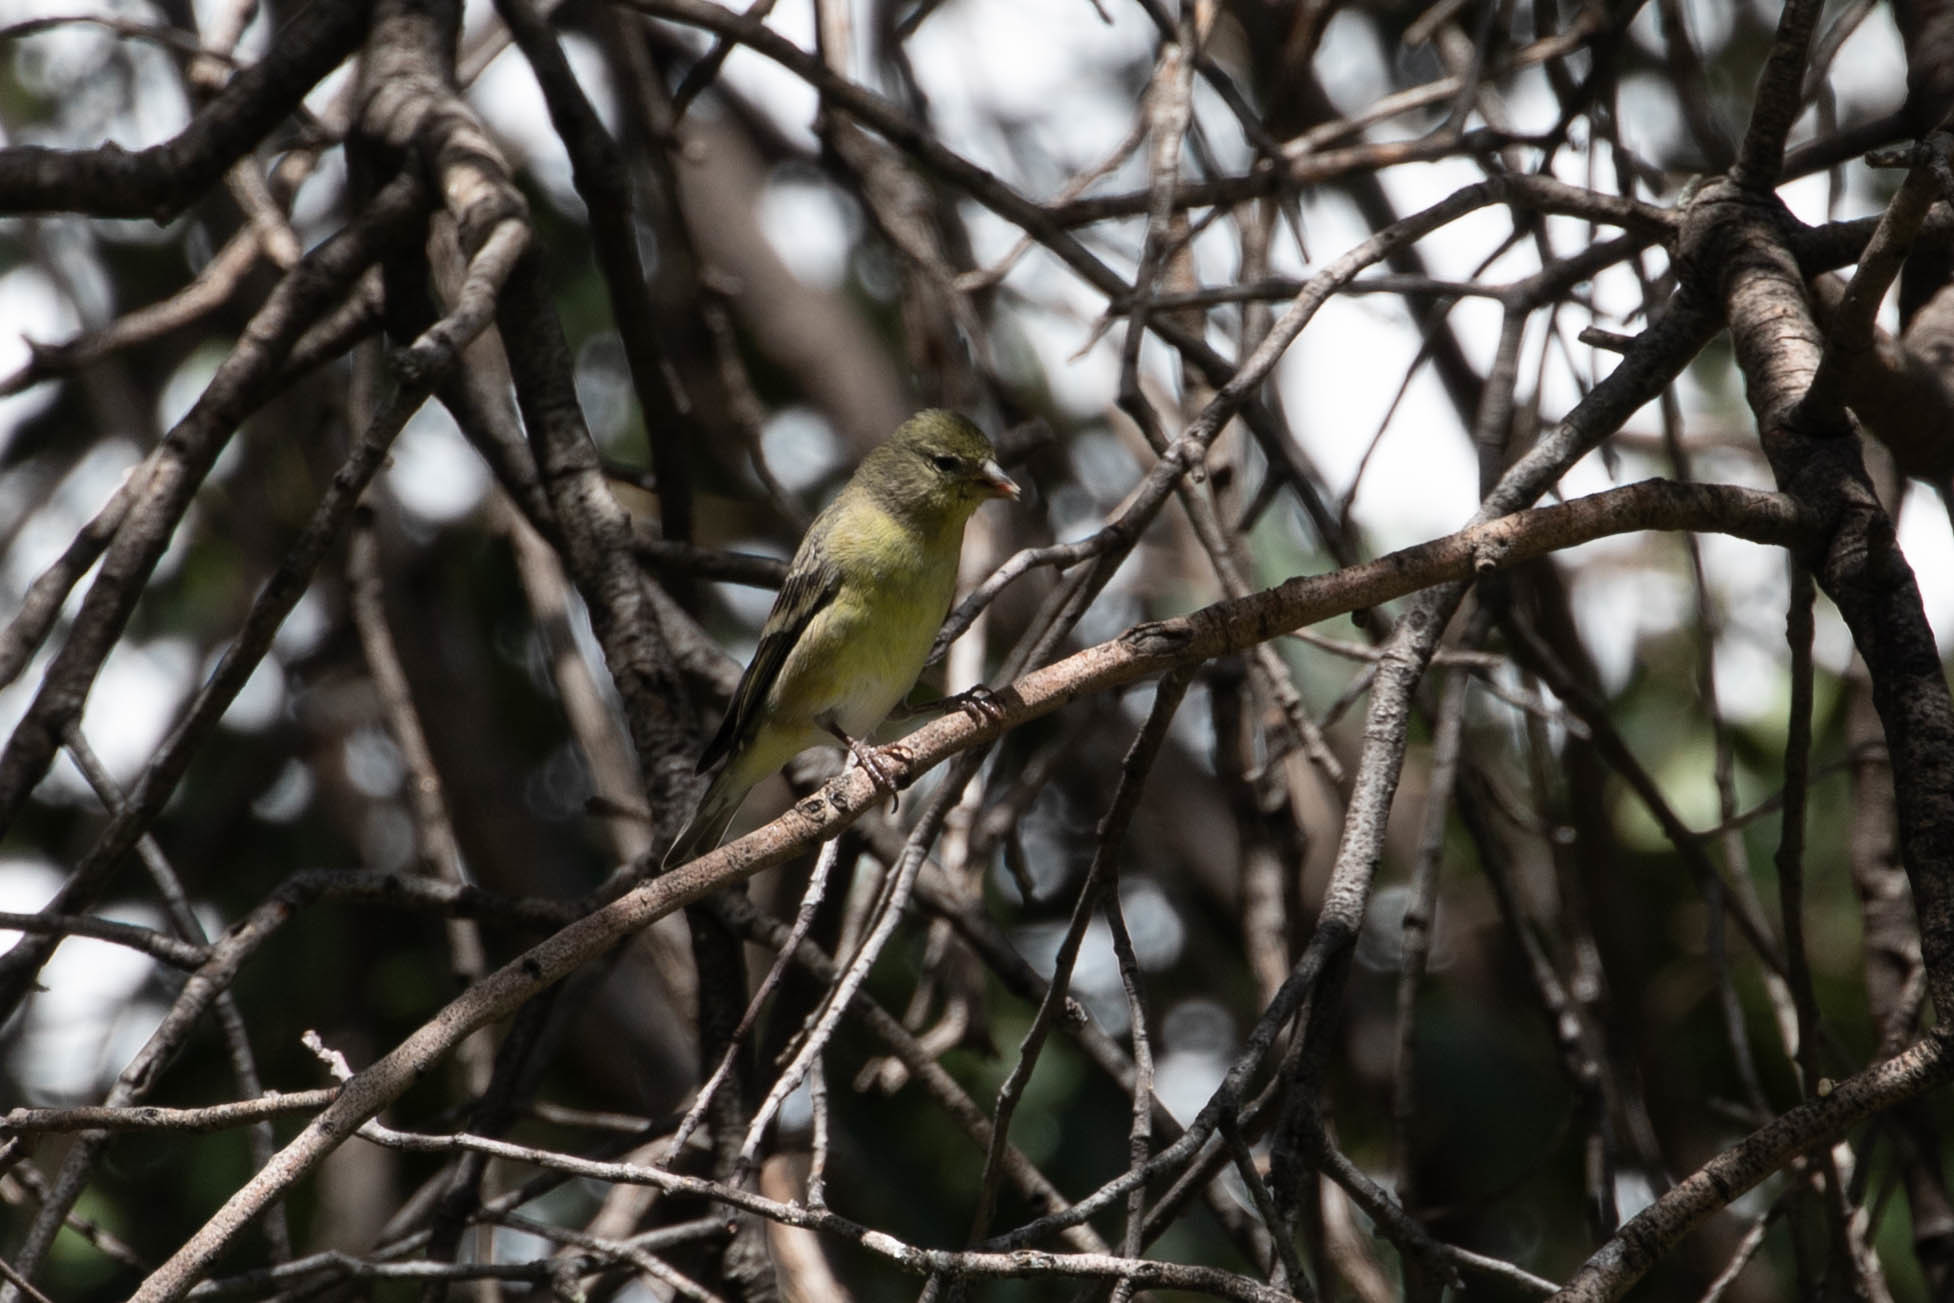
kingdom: Animalia
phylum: Chordata
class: Aves
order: Passeriformes
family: Fringillidae
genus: Spinus
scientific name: Spinus psaltria
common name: Lesser goldfinch
